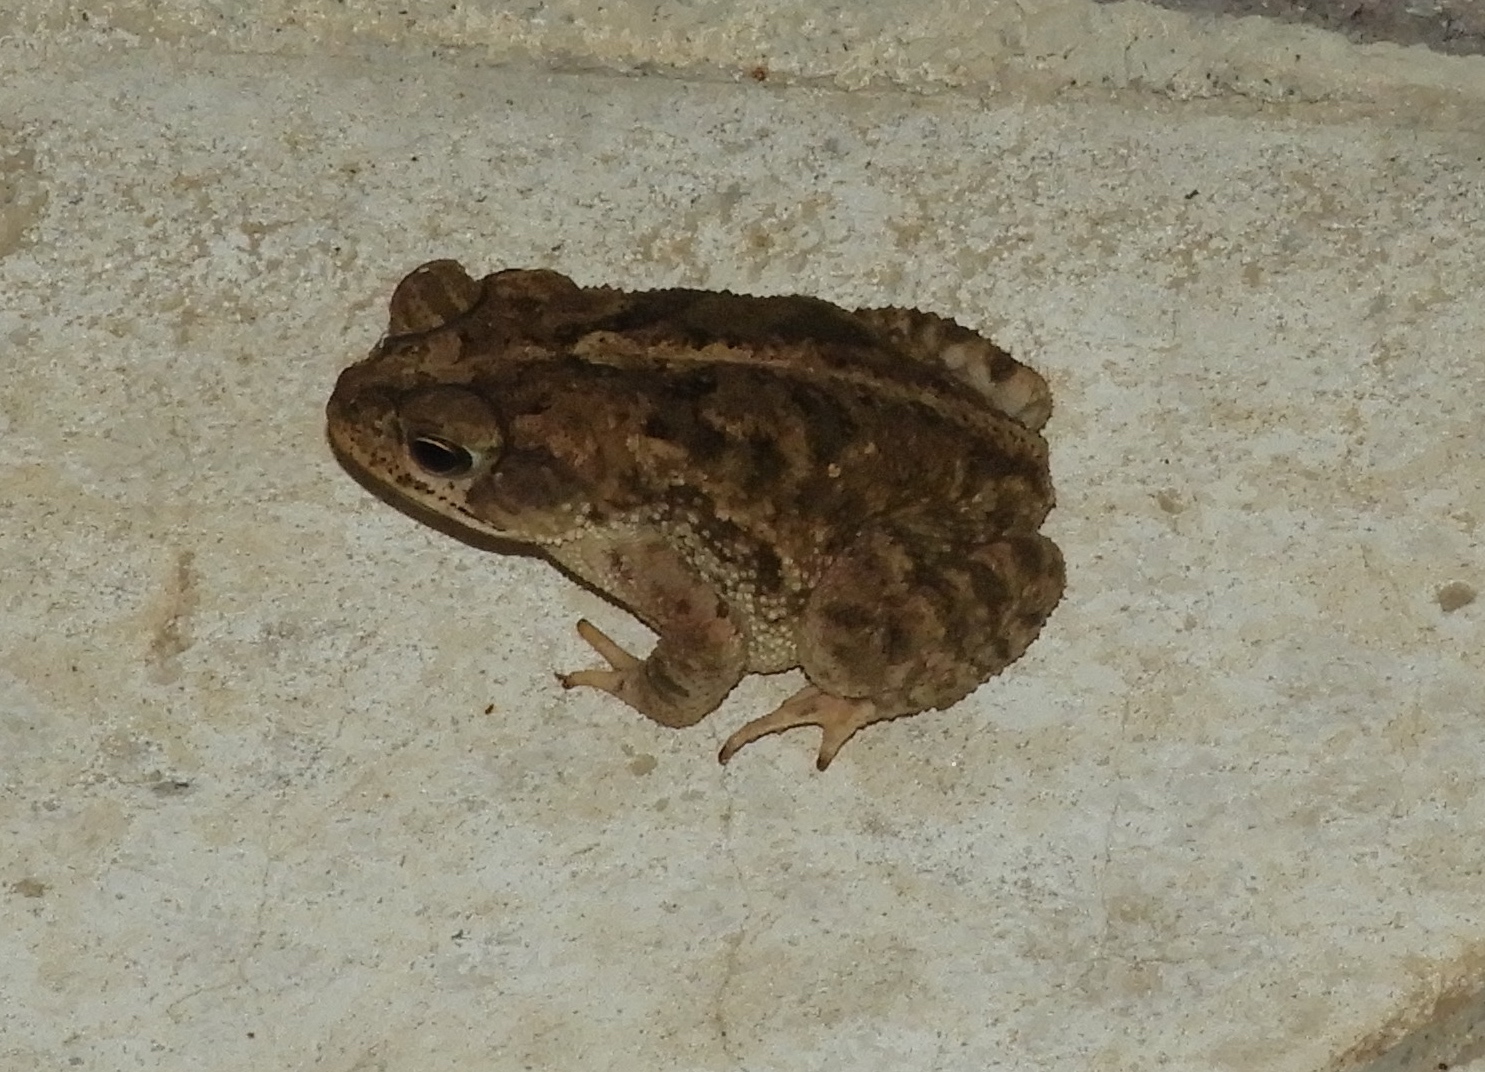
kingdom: Animalia
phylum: Chordata
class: Amphibia
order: Anura
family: Bufonidae
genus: Incilius
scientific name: Incilius mazatlanensis
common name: Sinaloa toad
